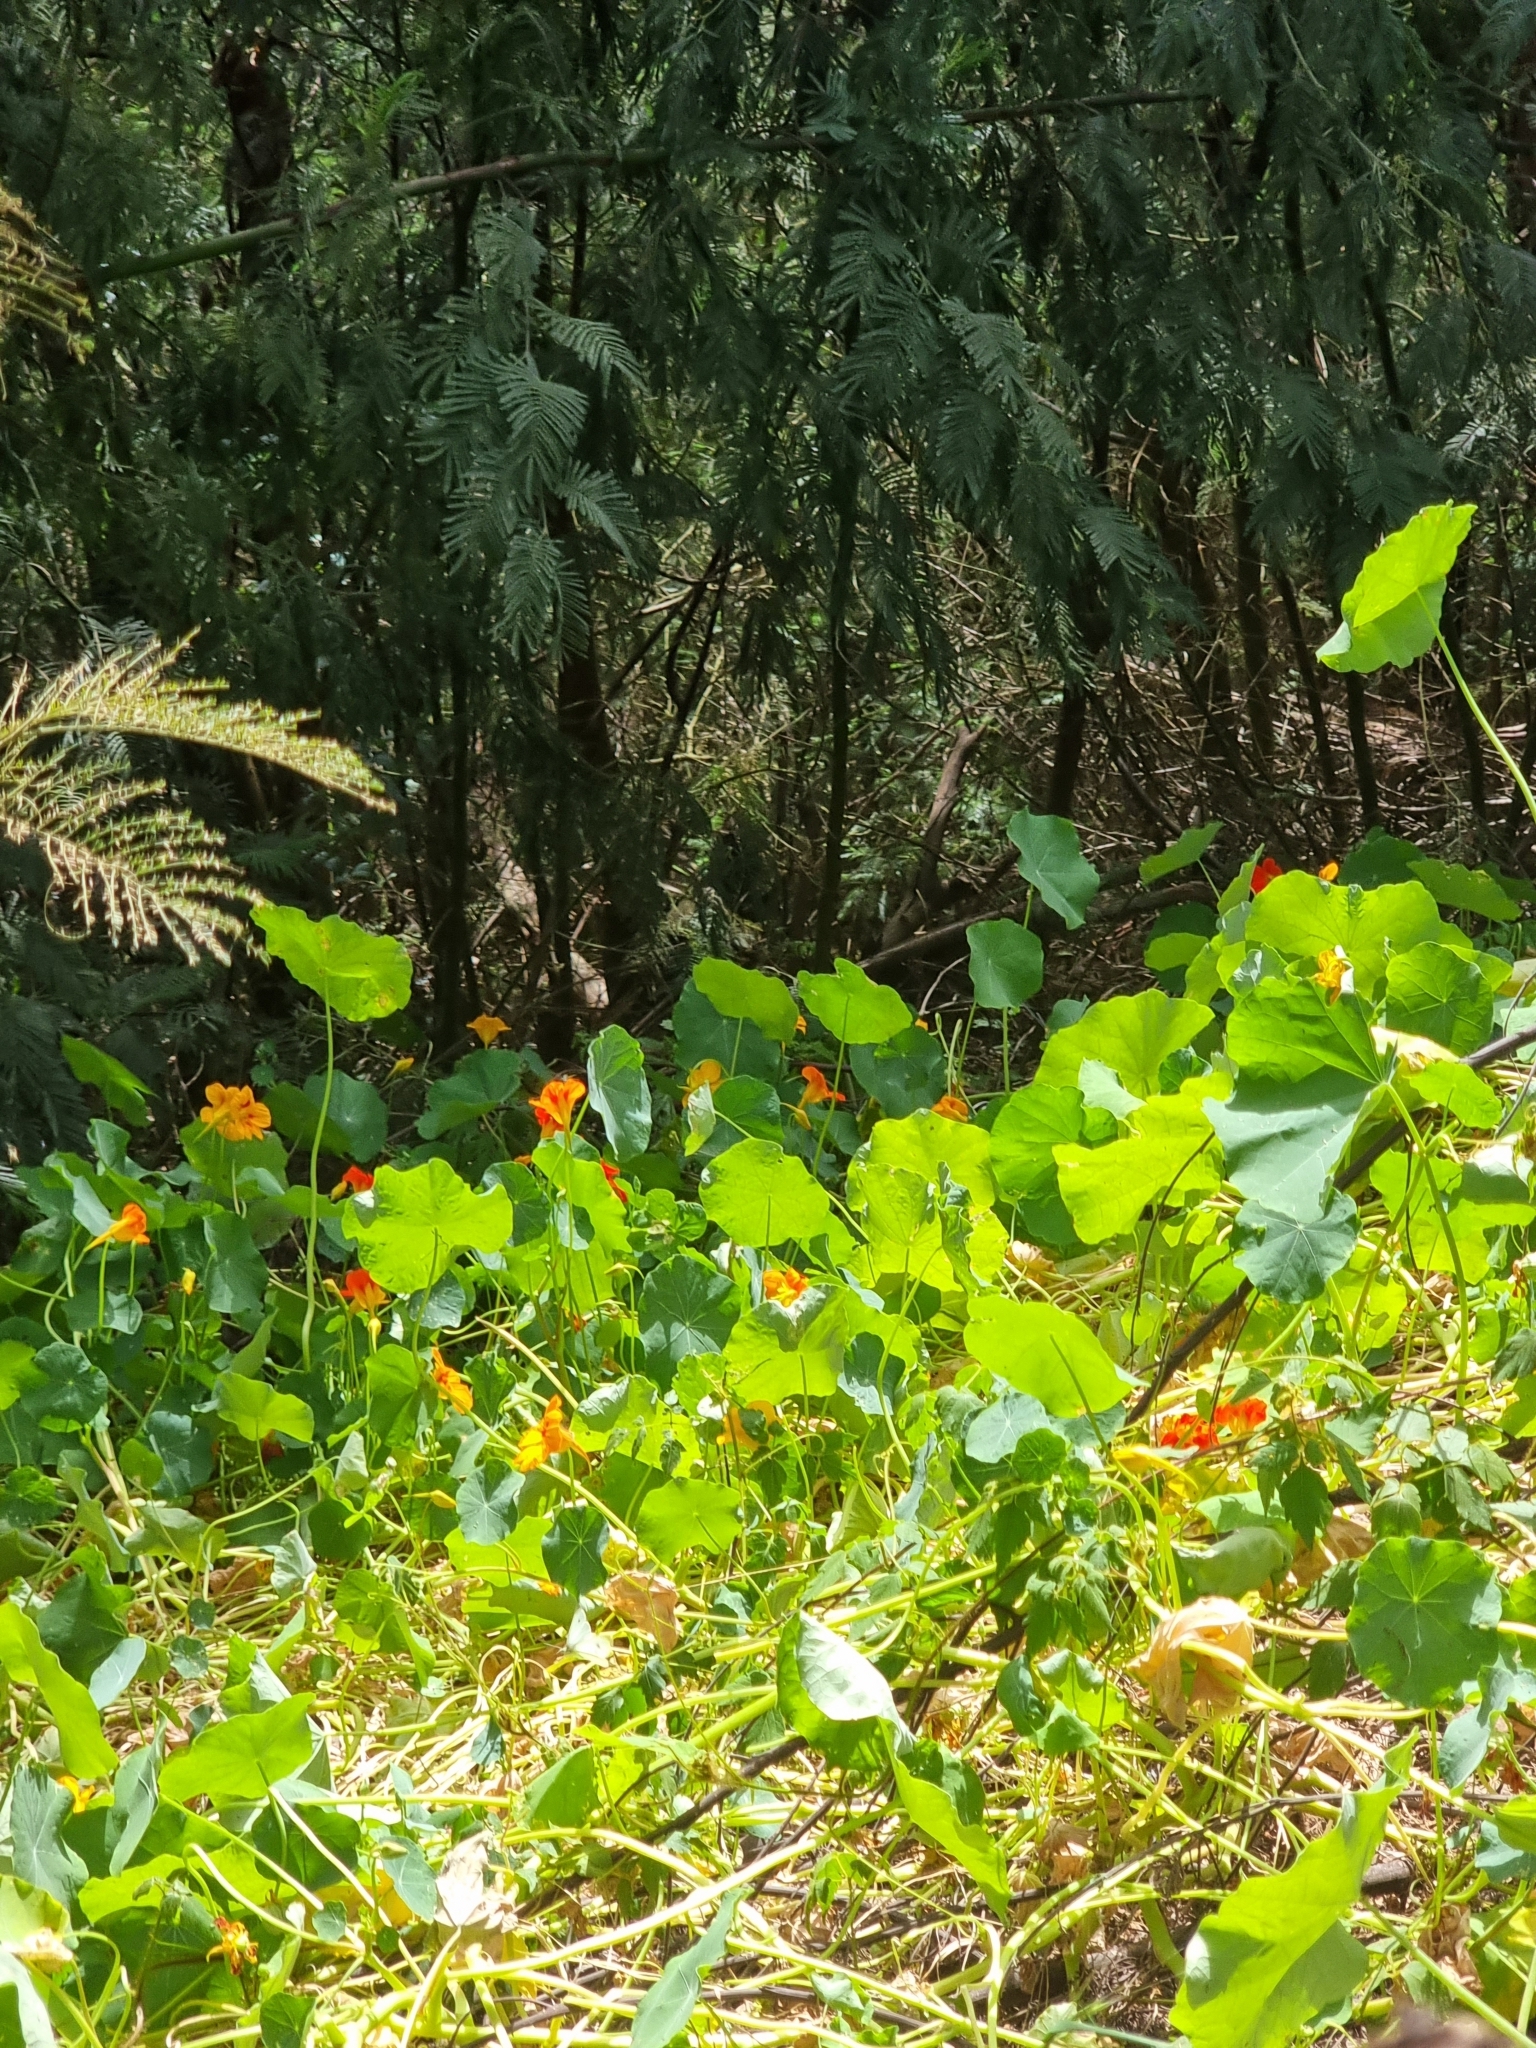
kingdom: Plantae
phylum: Tracheophyta
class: Magnoliopsida
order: Brassicales
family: Tropaeolaceae
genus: Tropaeolum
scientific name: Tropaeolum majus
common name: Nasturtium
